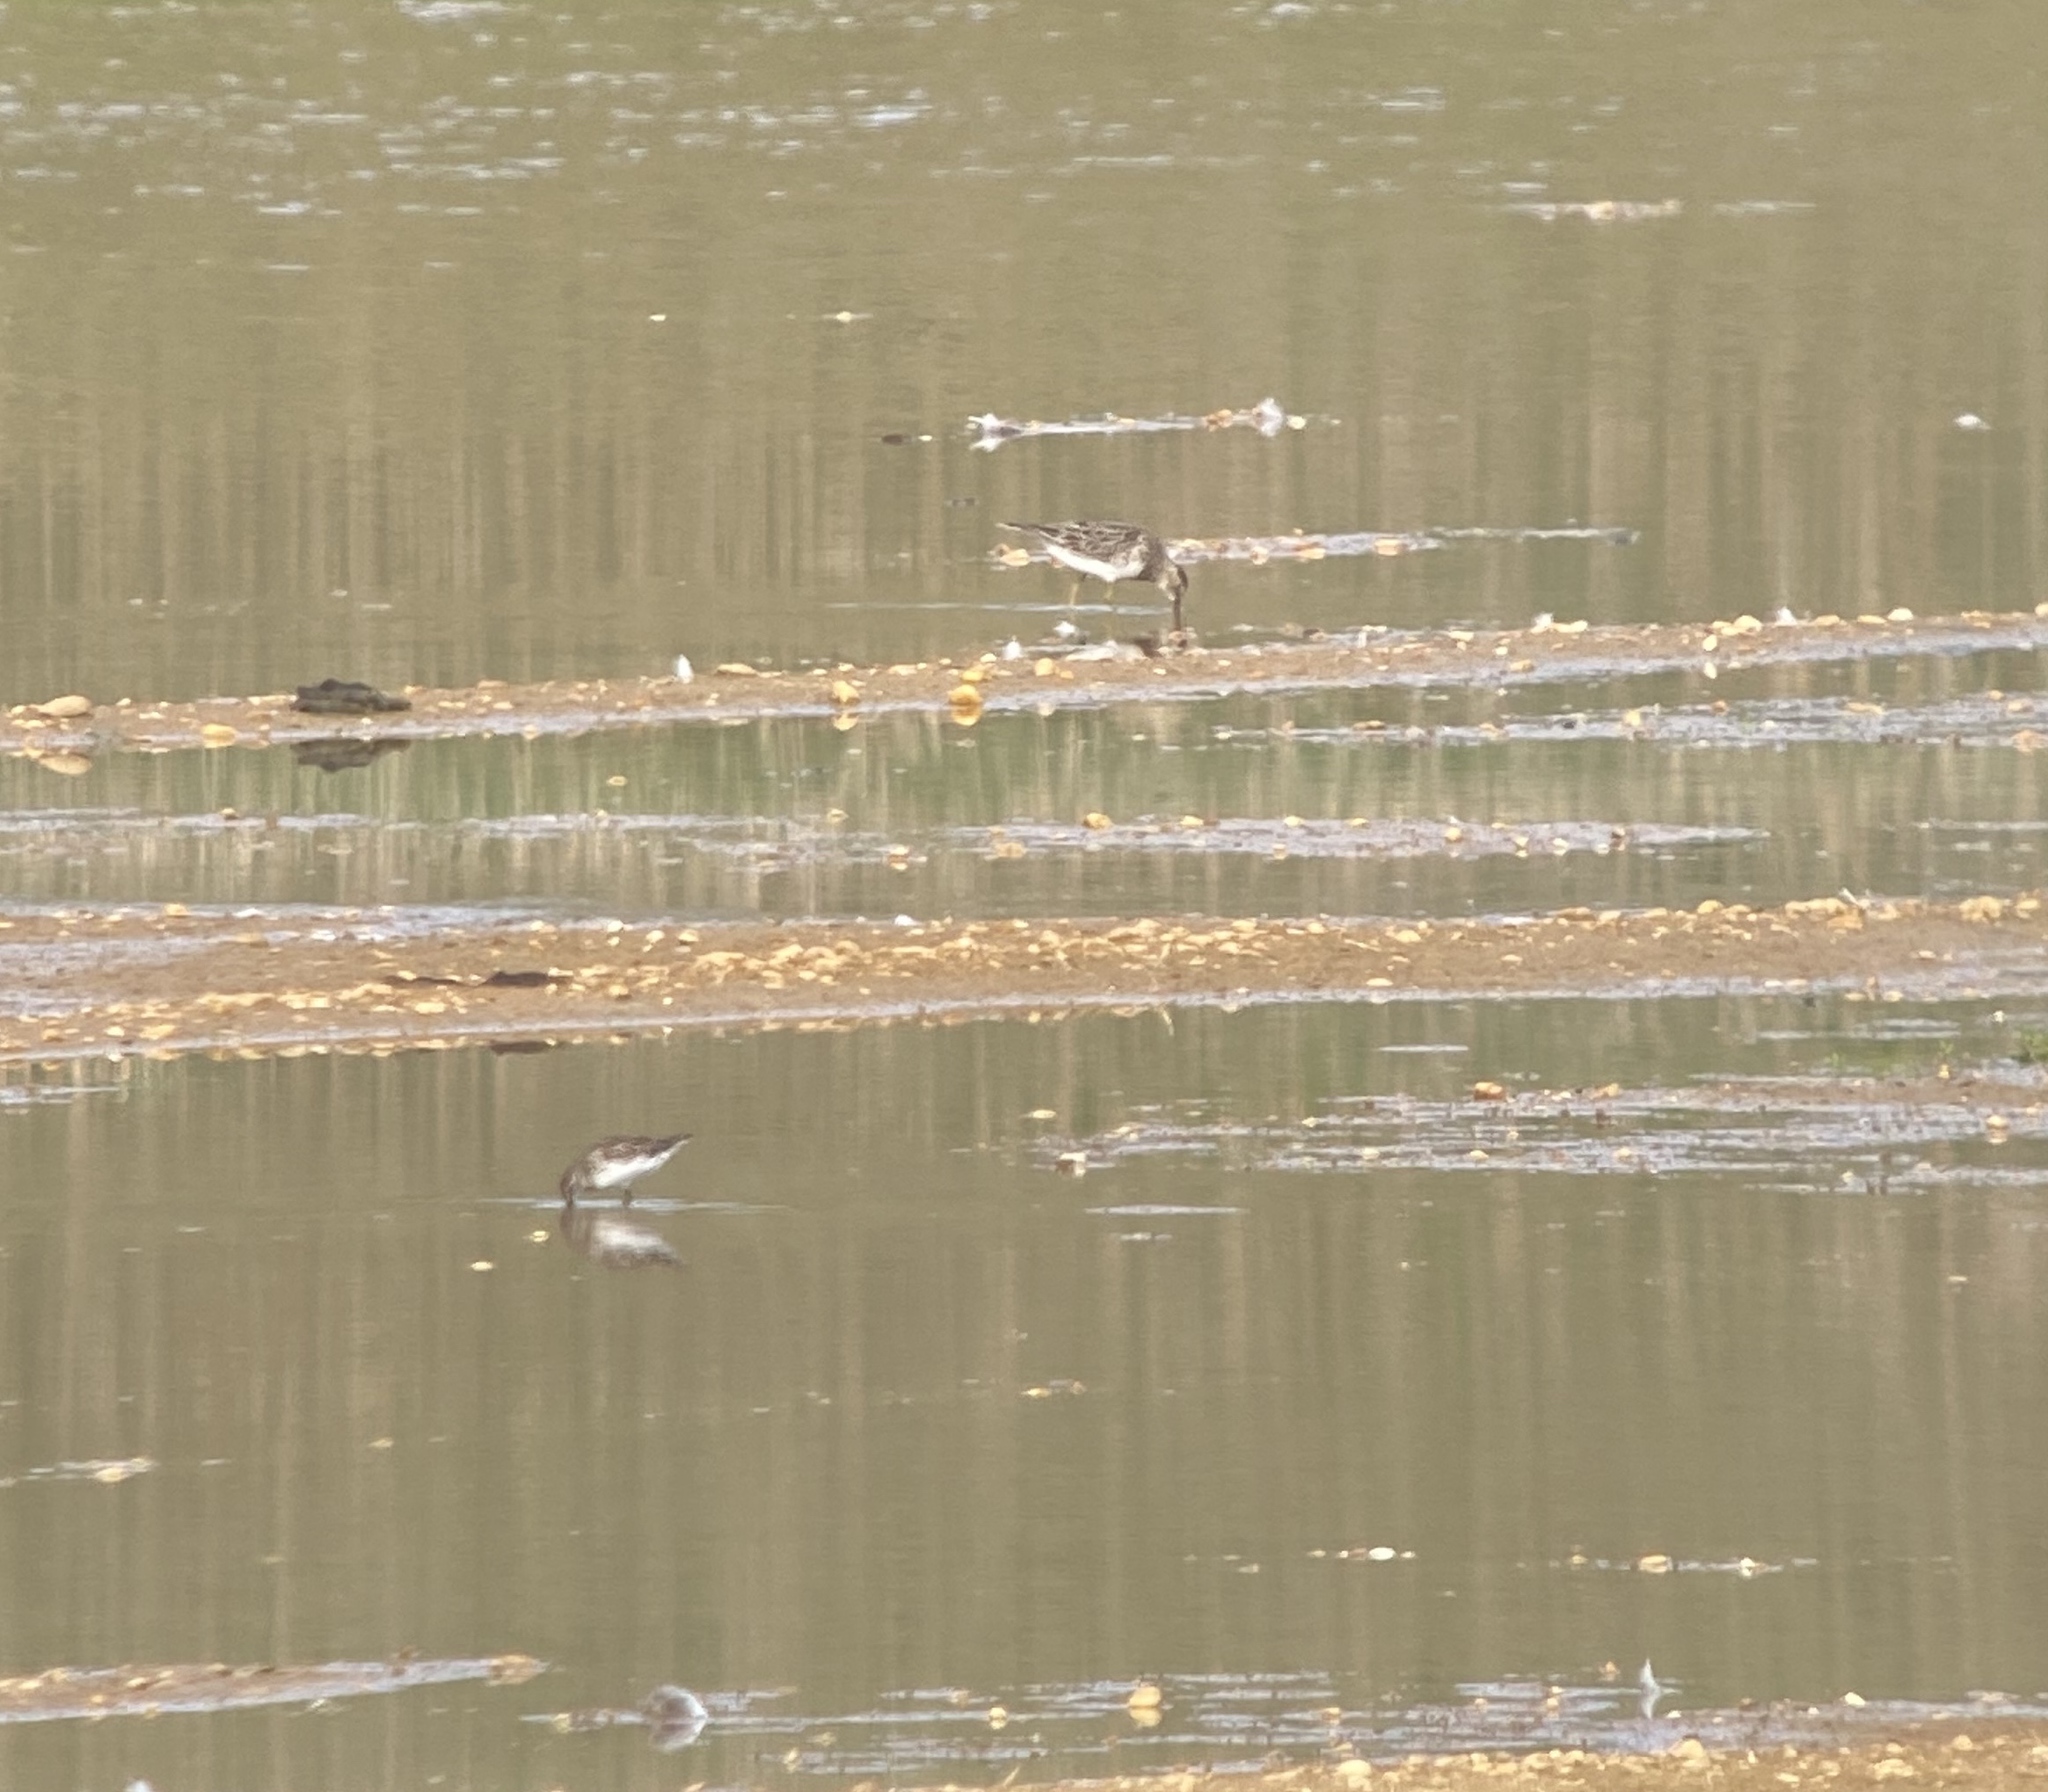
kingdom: Animalia
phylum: Chordata
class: Aves
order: Charadriiformes
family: Scolopacidae
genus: Calidris
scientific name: Calidris melanotos
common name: Pectoral sandpiper
